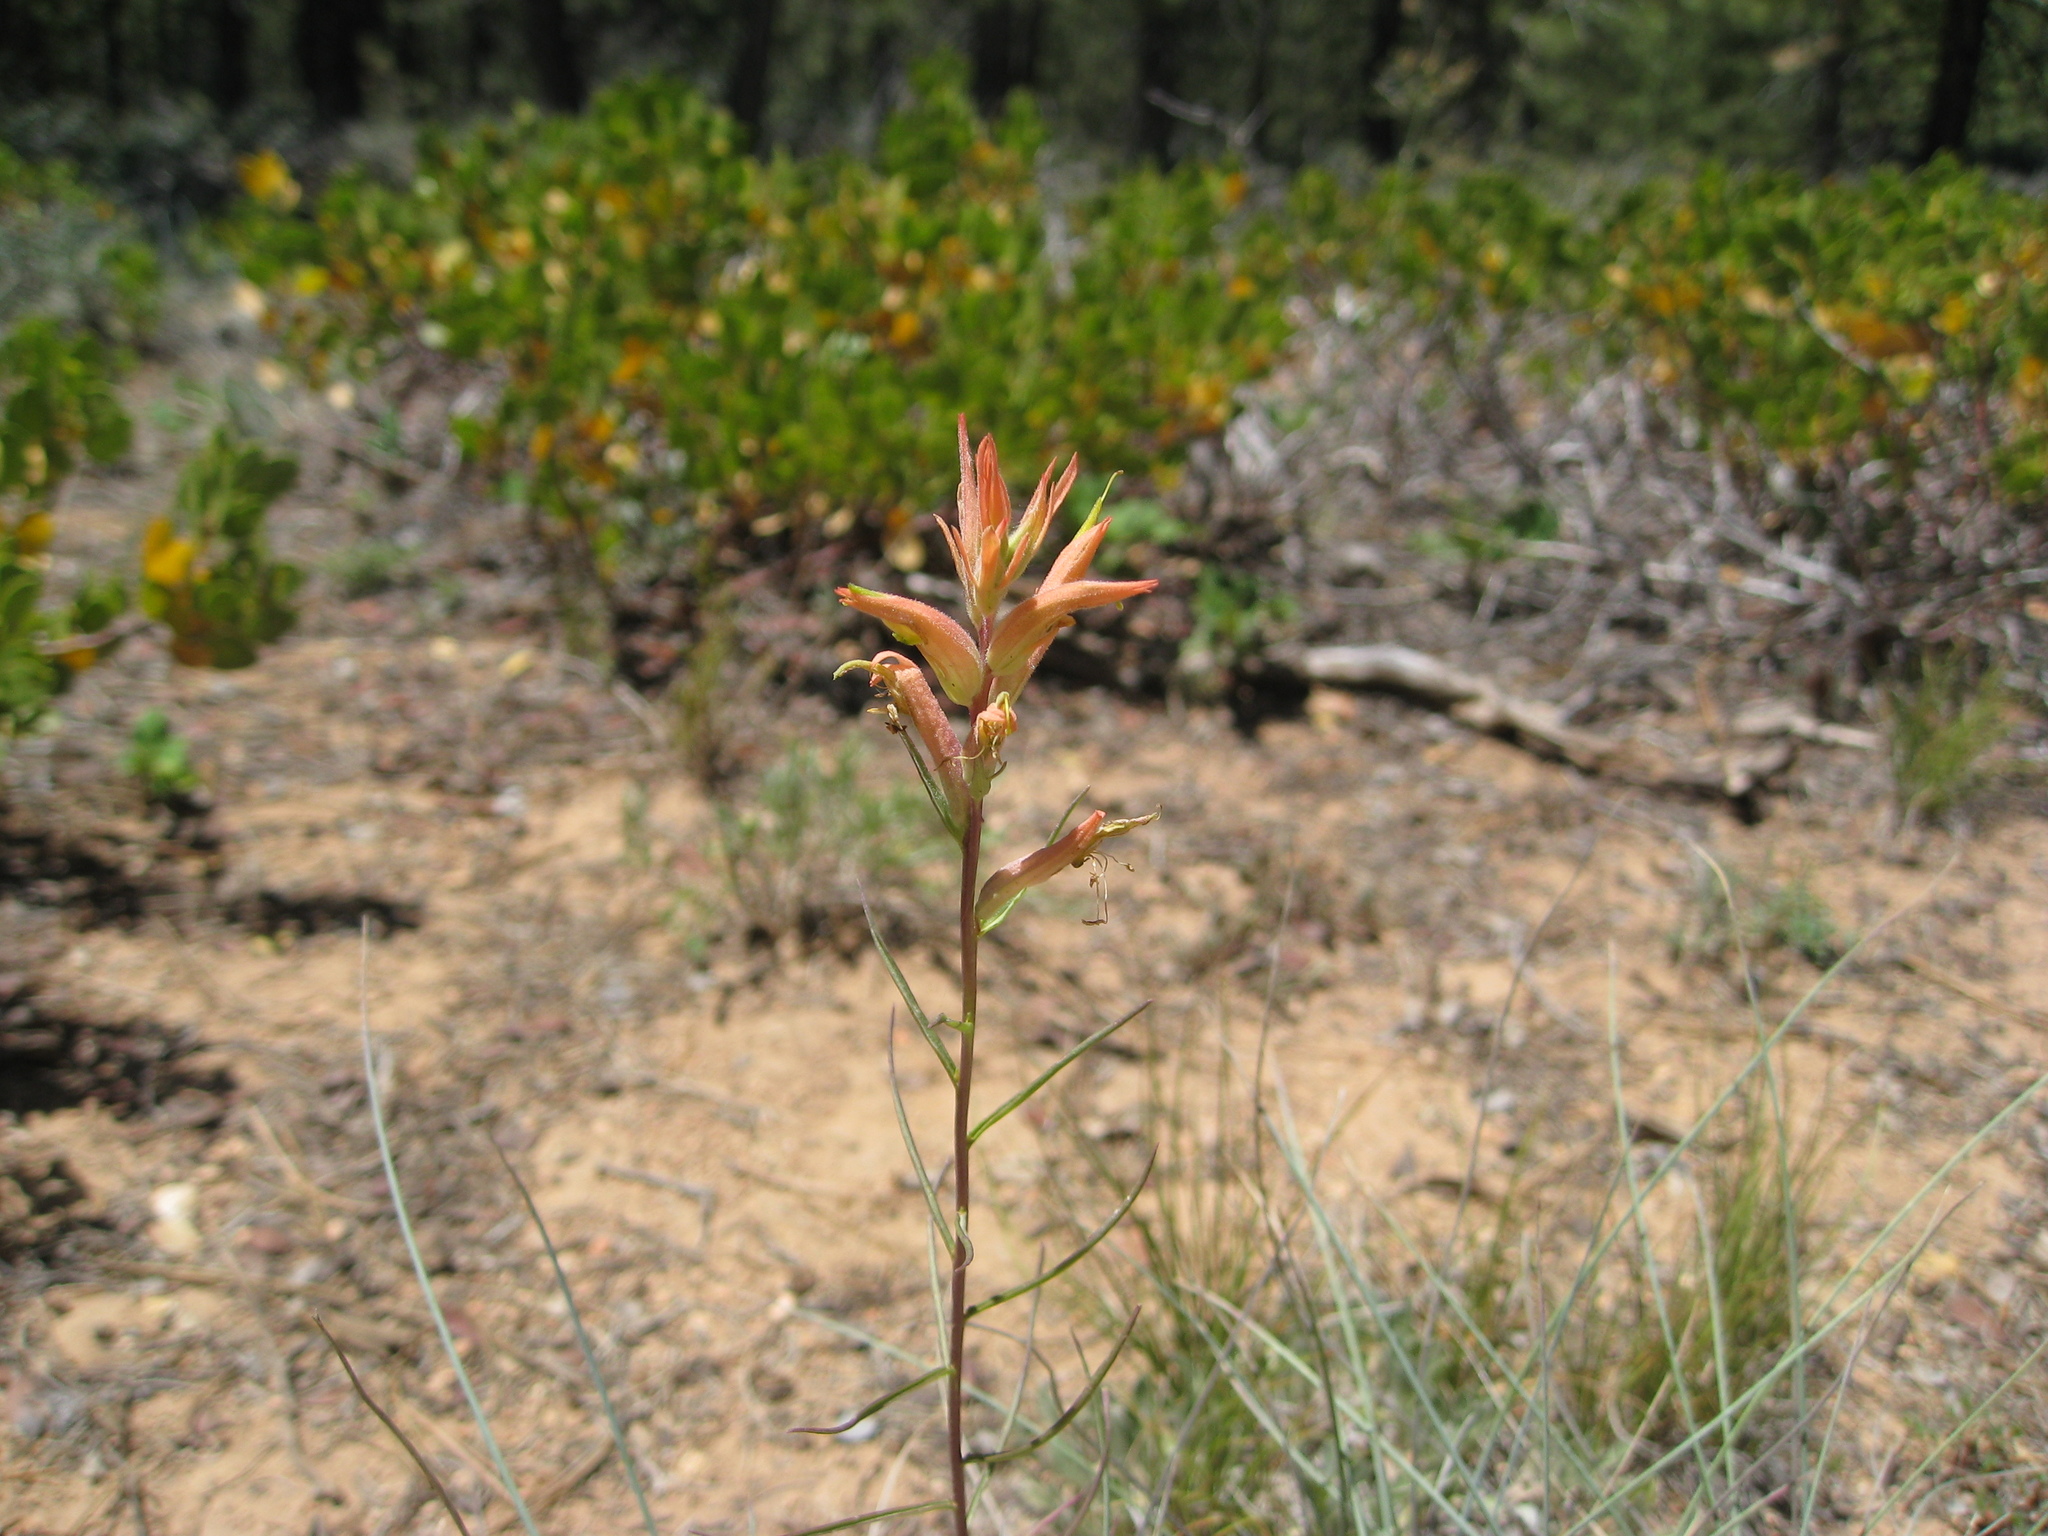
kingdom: Plantae
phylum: Tracheophyta
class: Magnoliopsida
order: Lamiales
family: Orobanchaceae
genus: Castilleja
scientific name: Castilleja linariifolia
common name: Wyoming paintbrush
